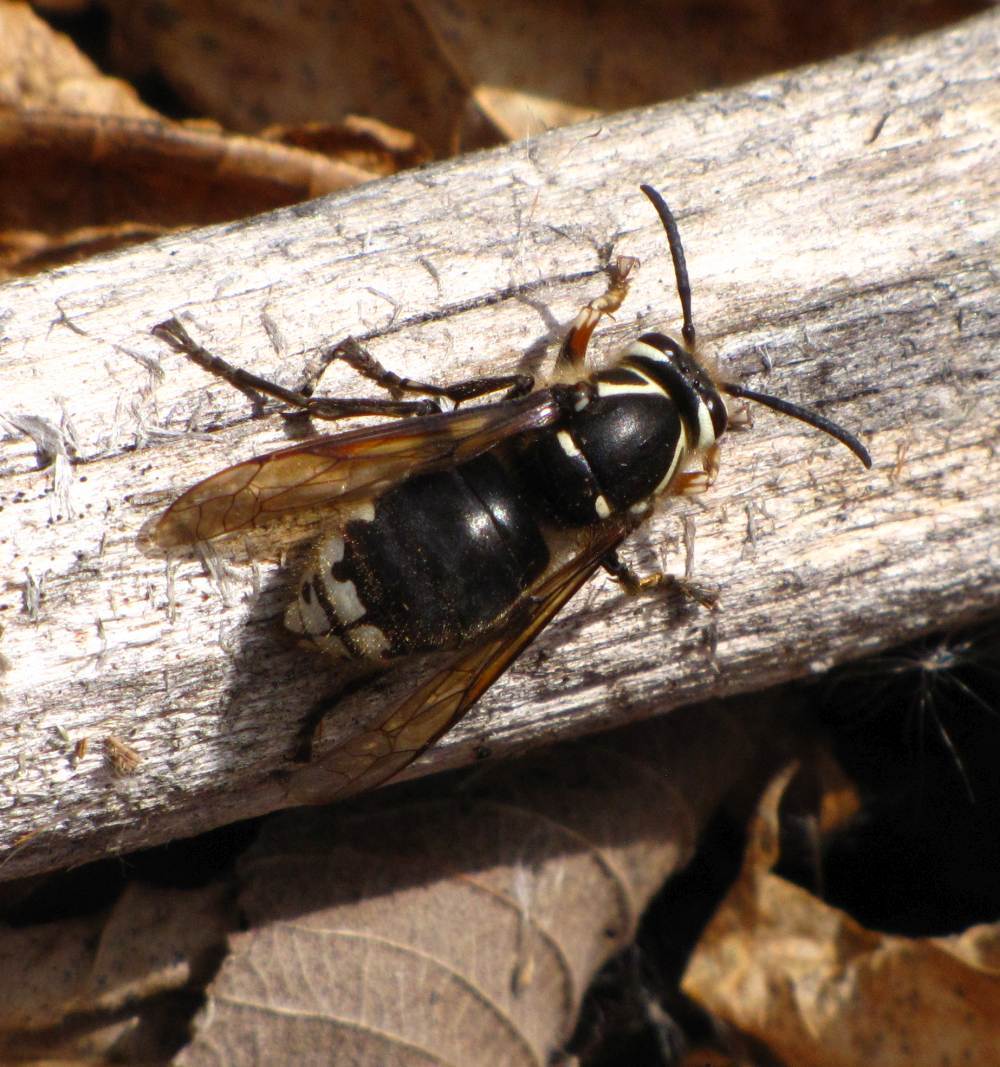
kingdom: Animalia
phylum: Arthropoda
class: Insecta
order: Hymenoptera
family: Vespidae
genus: Dolichovespula
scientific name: Dolichovespula maculata
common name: Bald-faced hornet
